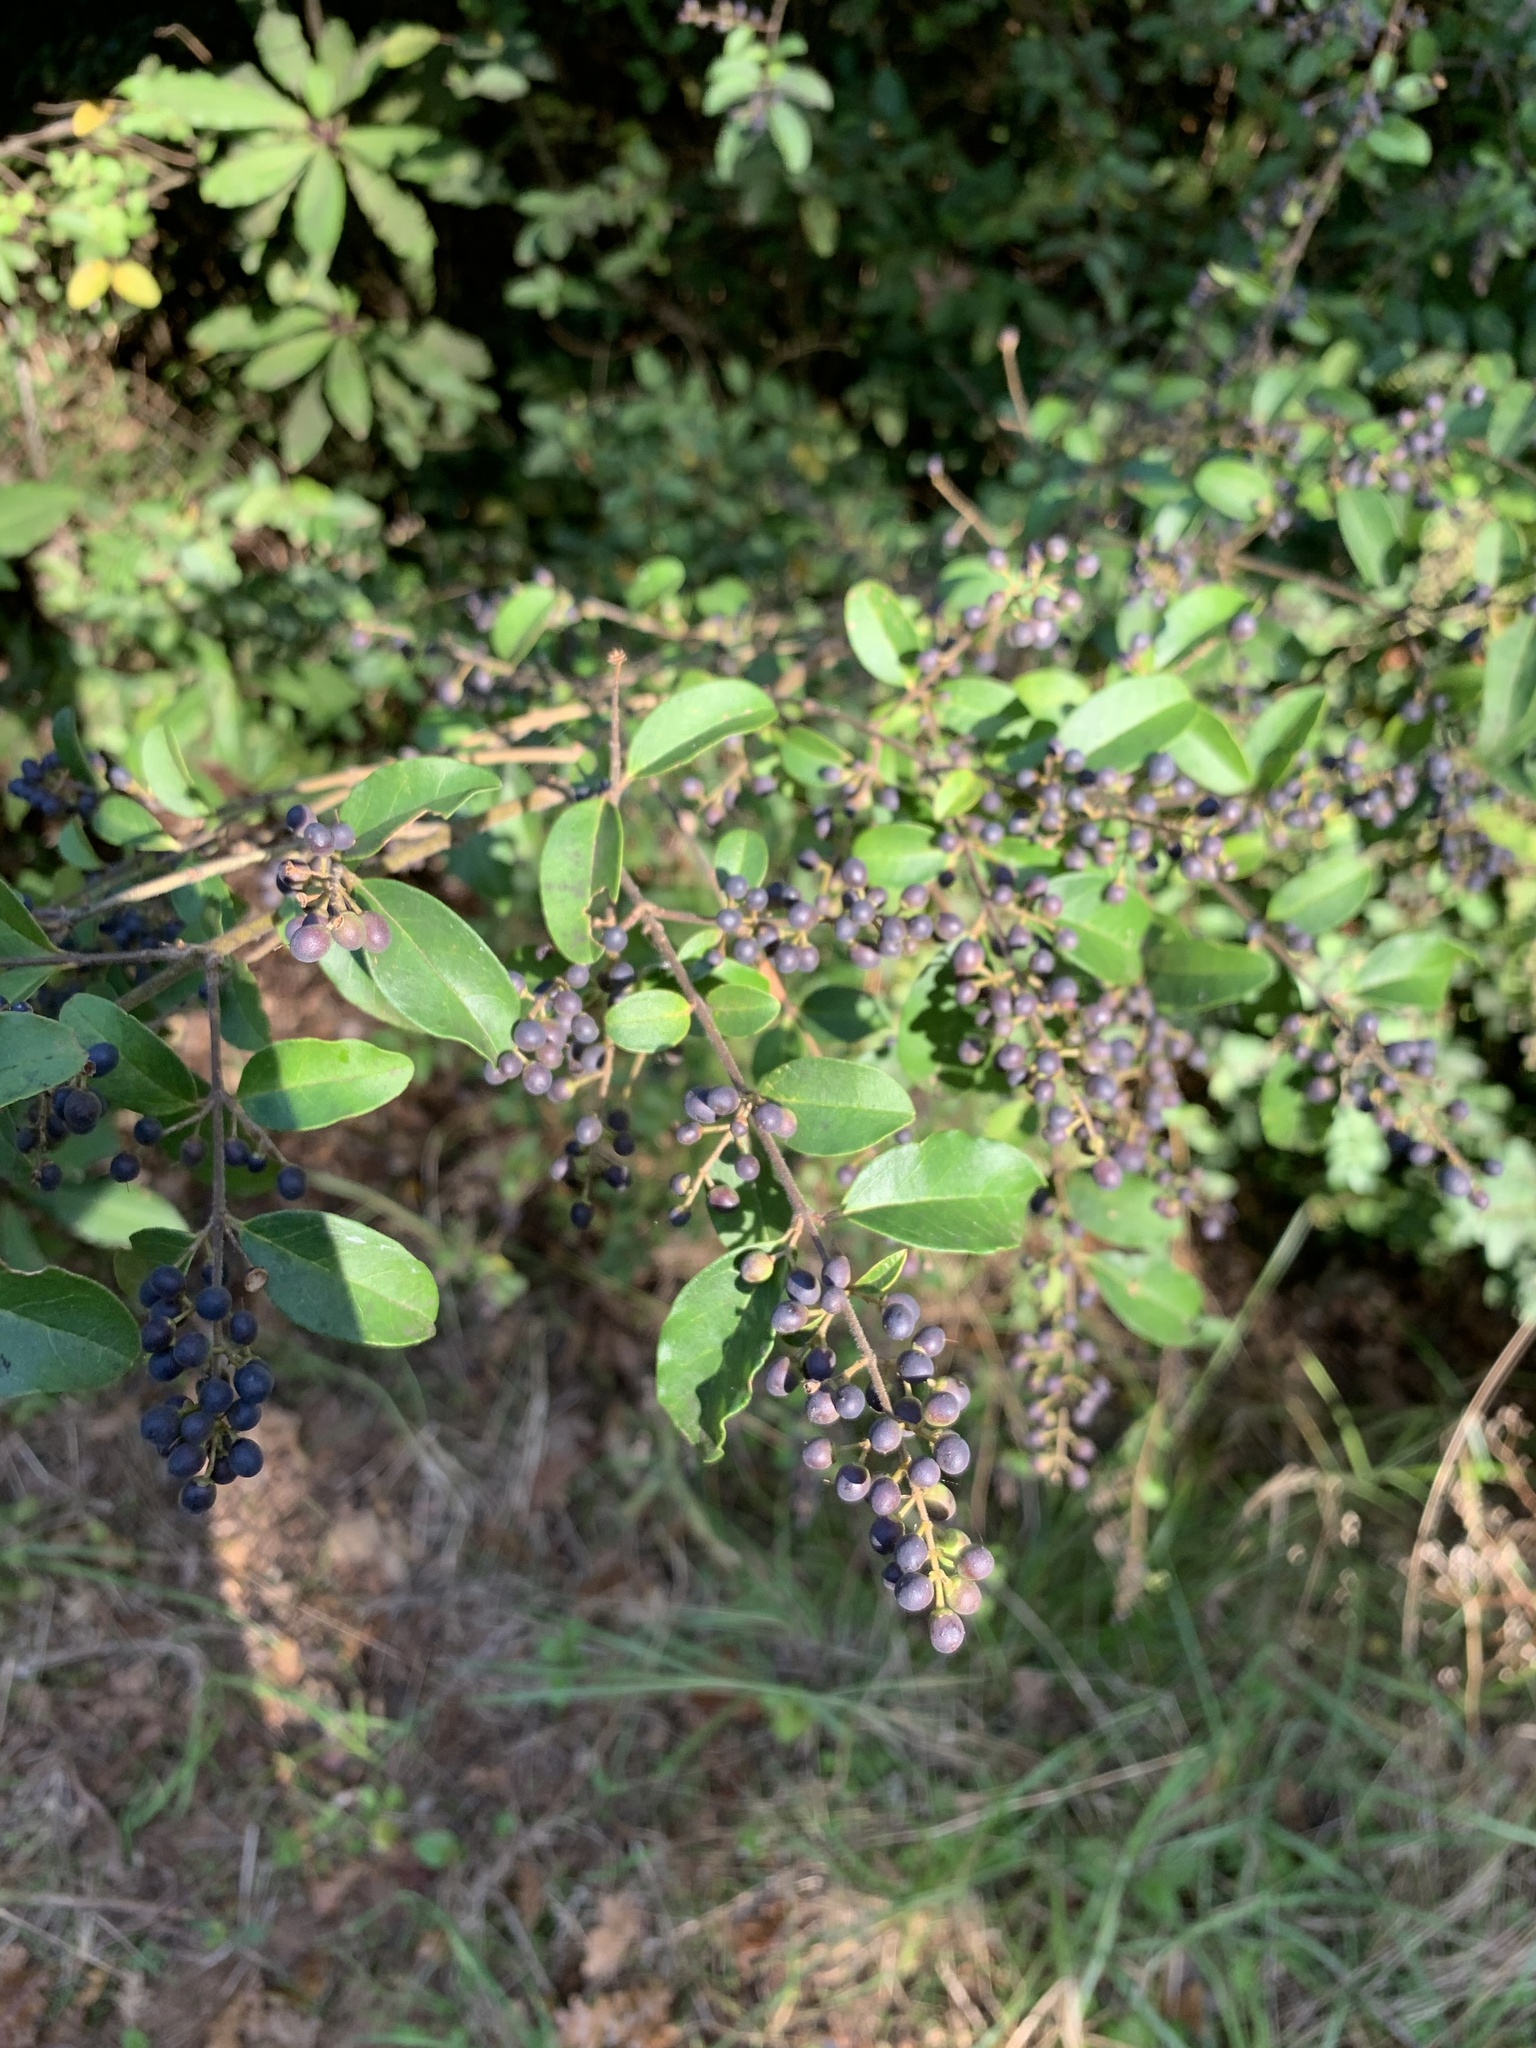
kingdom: Plantae
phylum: Tracheophyta
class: Magnoliopsida
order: Lamiales
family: Oleaceae
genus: Ligustrum
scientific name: Ligustrum sinense
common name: Chinese privet
